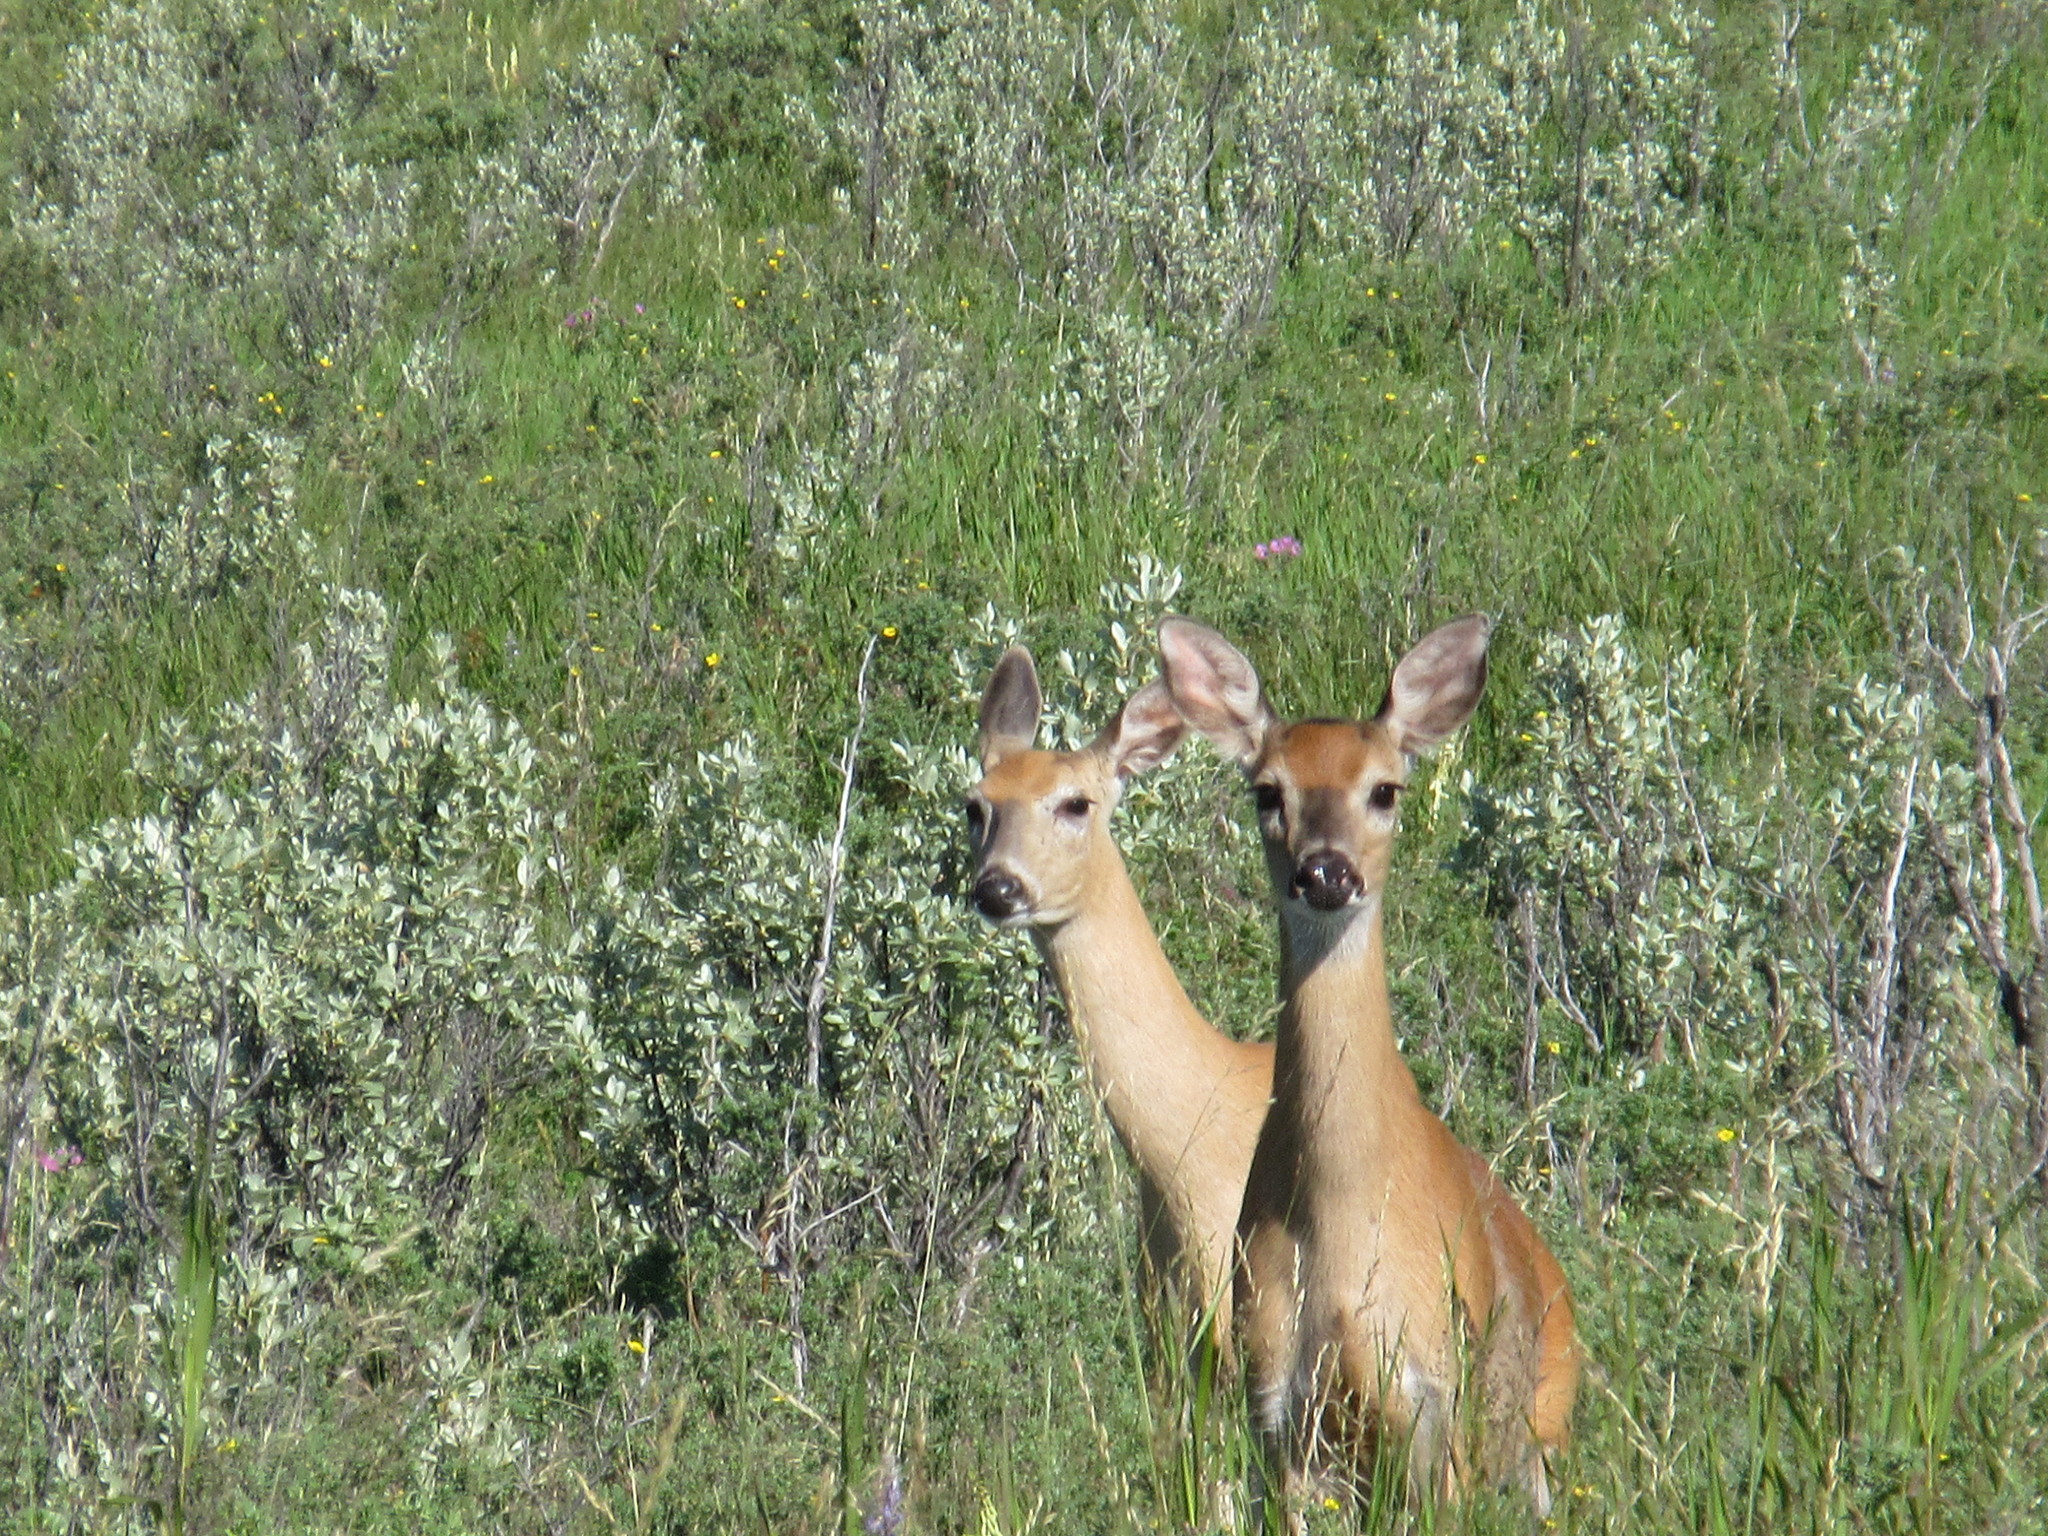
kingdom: Animalia
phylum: Chordata
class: Mammalia
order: Artiodactyla
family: Cervidae
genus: Odocoileus
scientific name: Odocoileus virginianus
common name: White-tailed deer
